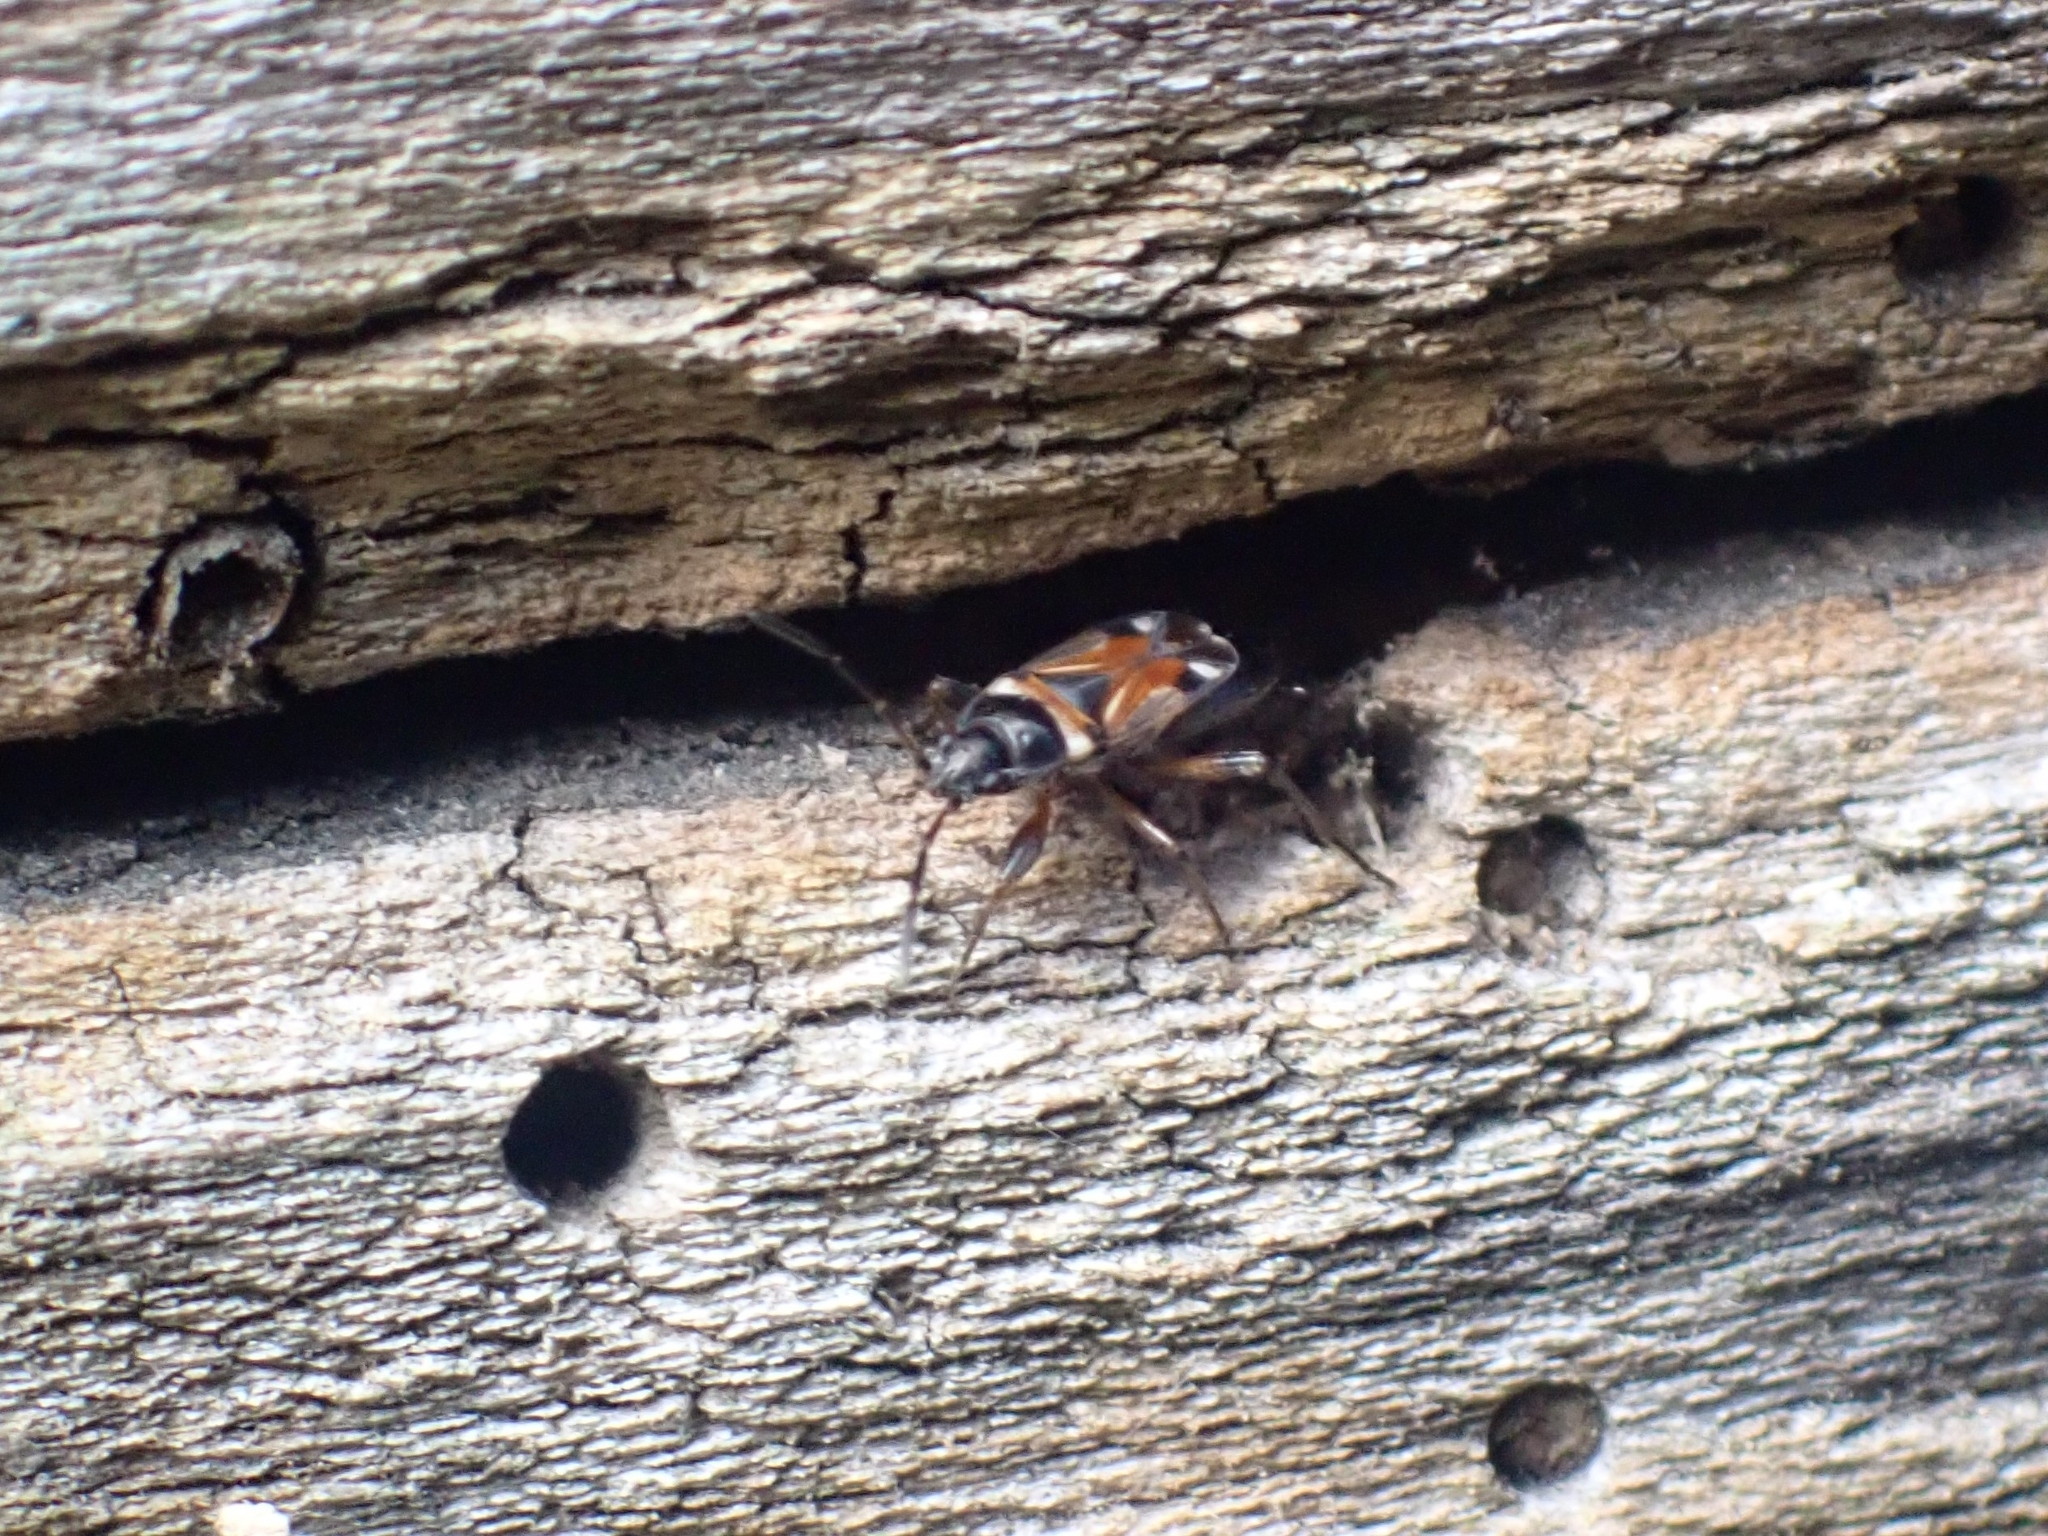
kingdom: Animalia
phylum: Arthropoda
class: Insecta
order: Hemiptera
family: Rhyparochromidae
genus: Raglius
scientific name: Raglius alboacuminatus
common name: Dirt-colored seed bug
